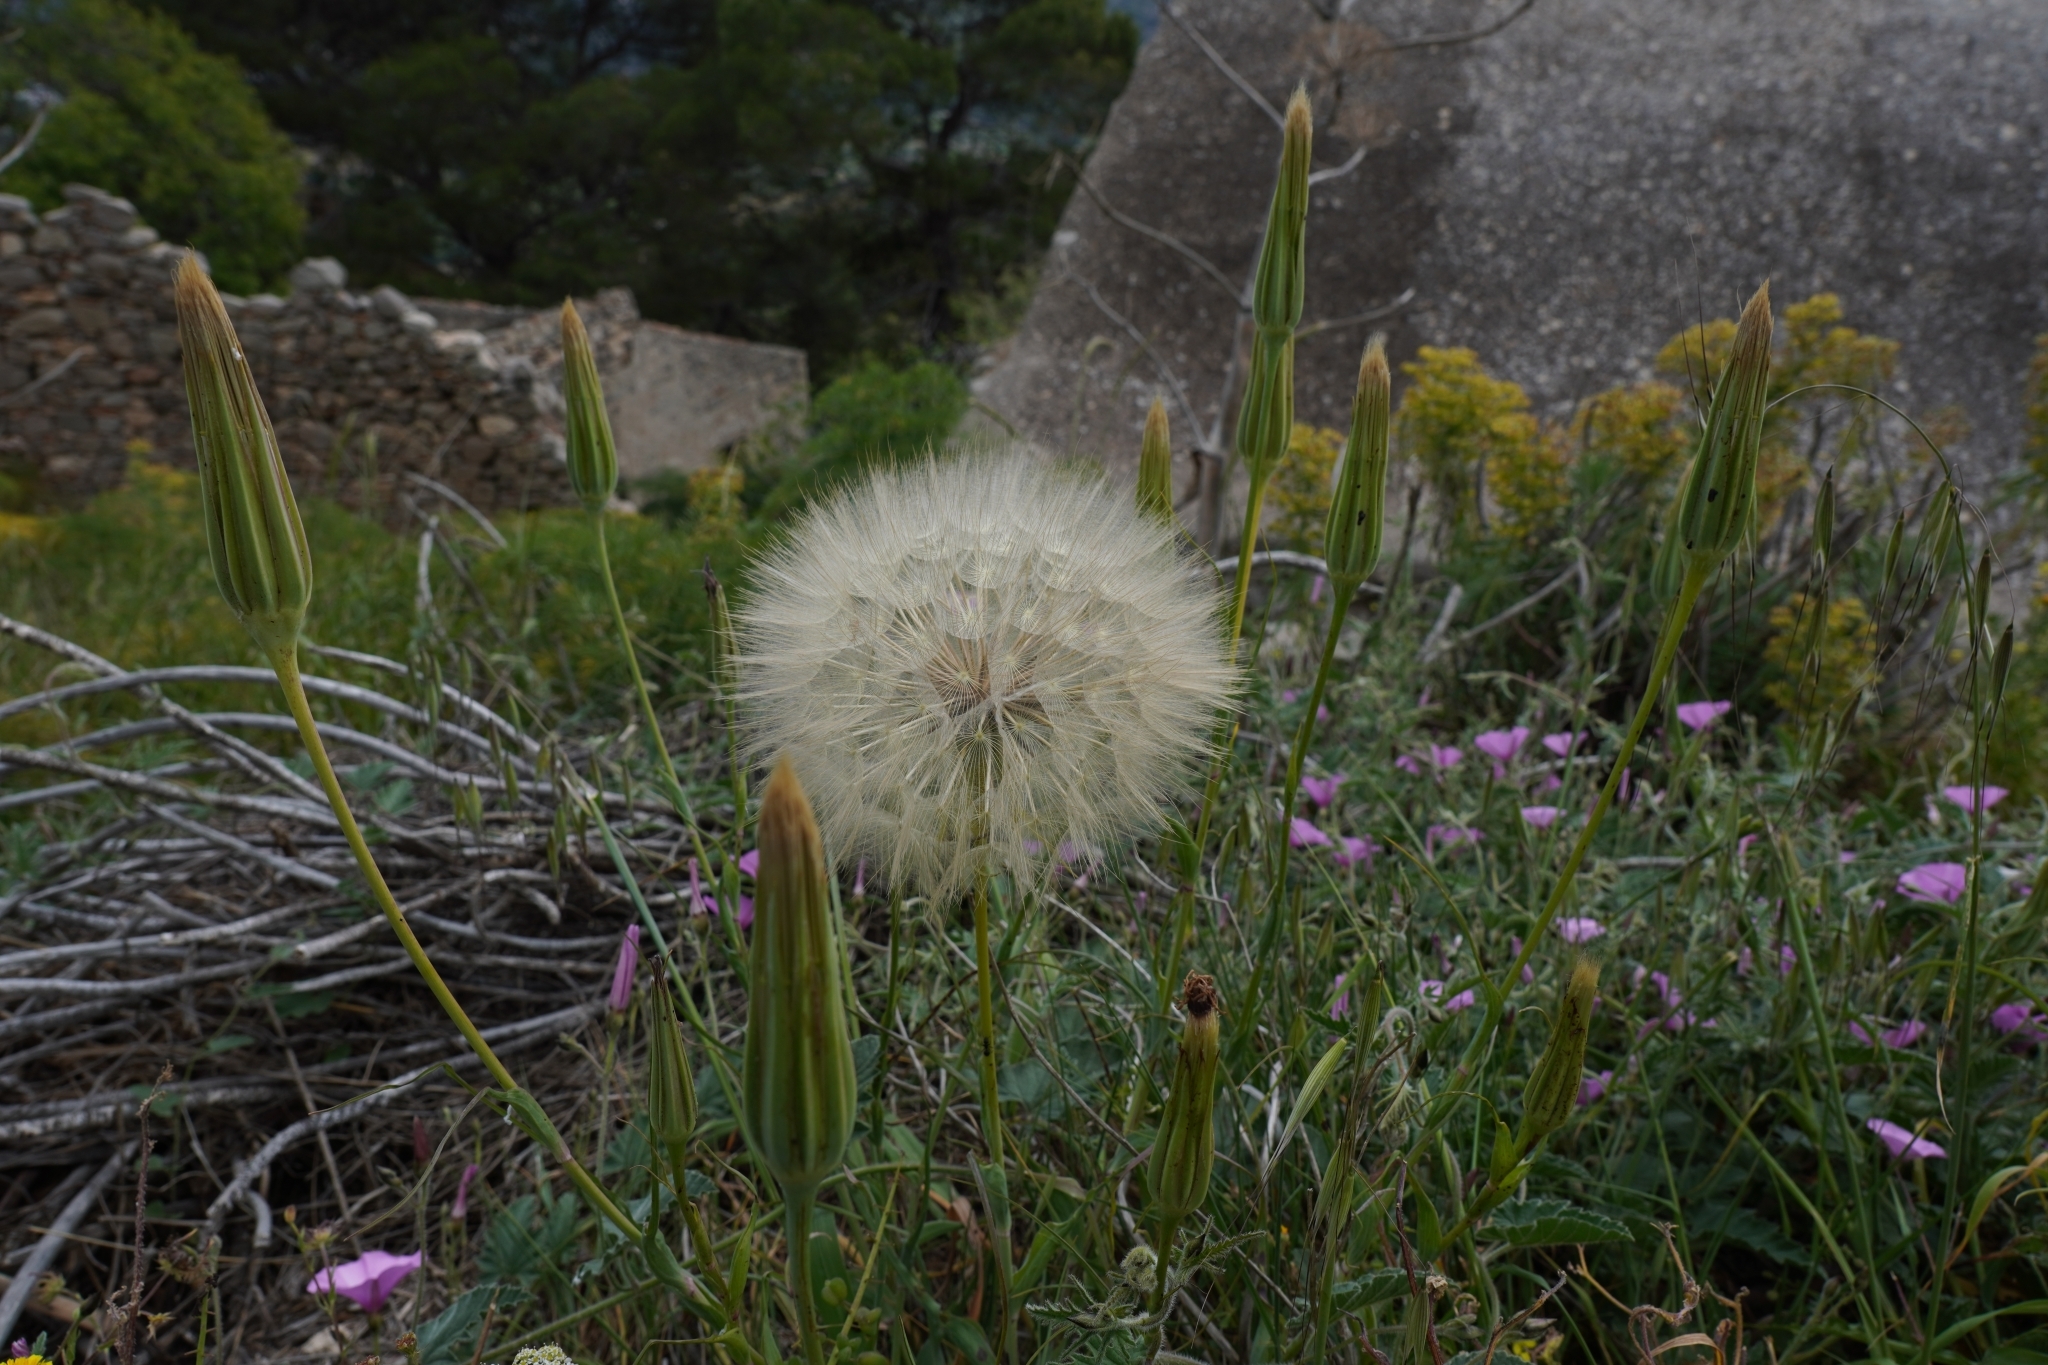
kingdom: Plantae
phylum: Tracheophyta
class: Magnoliopsida
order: Asterales
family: Asteraceae
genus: Tragopogon
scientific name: Tragopogon porrifolius
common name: Salsify
